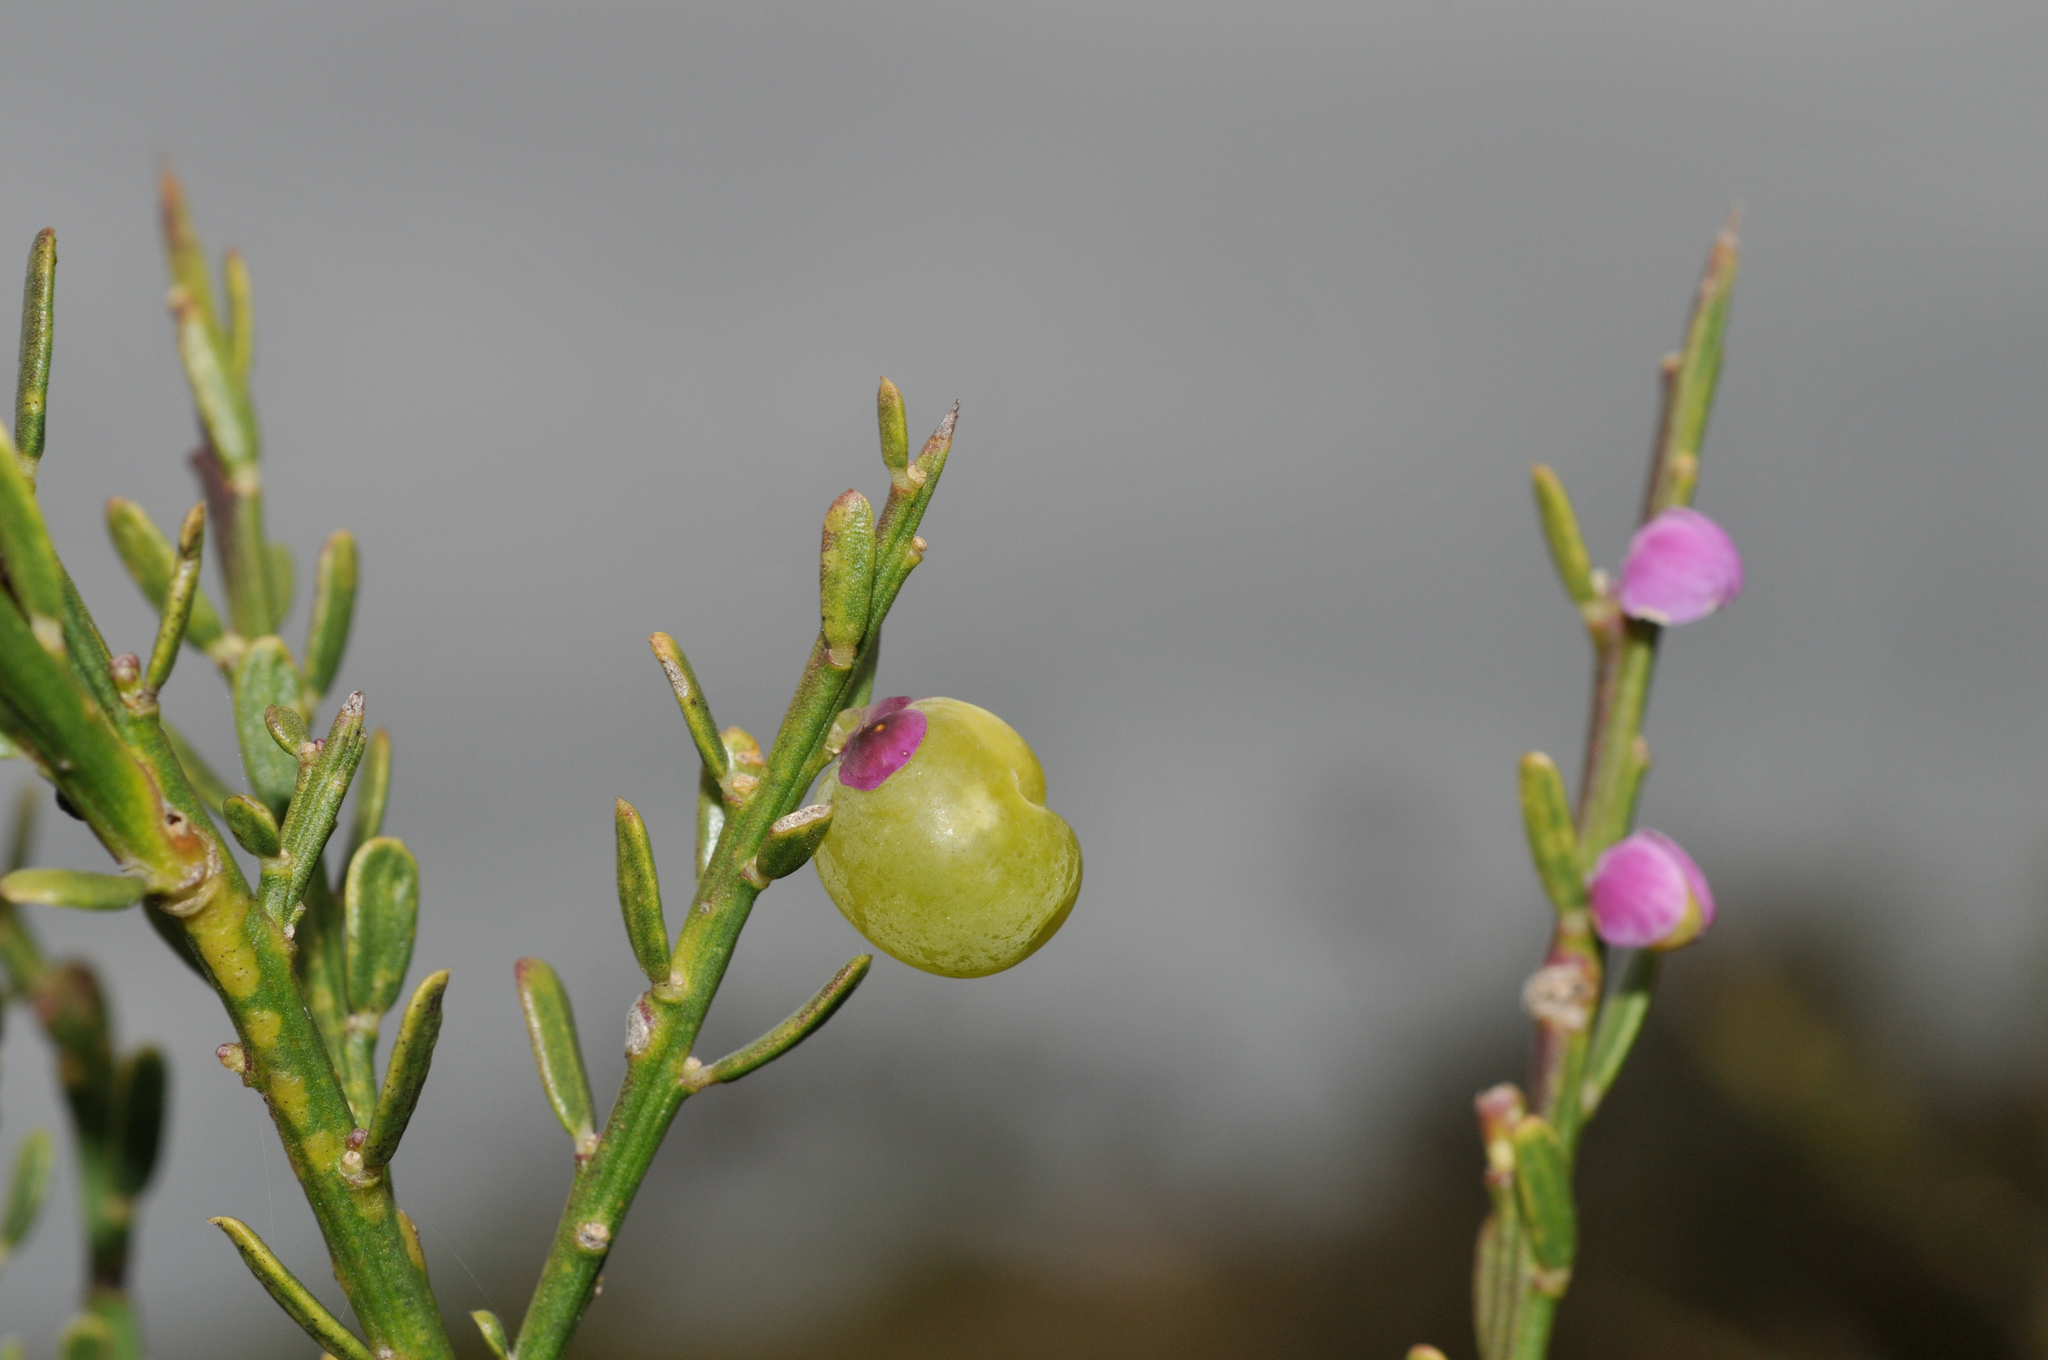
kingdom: Plantae
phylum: Tracheophyta
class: Magnoliopsida
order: Fabales
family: Polygalaceae
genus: Muraltia
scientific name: Muraltia spinosa
